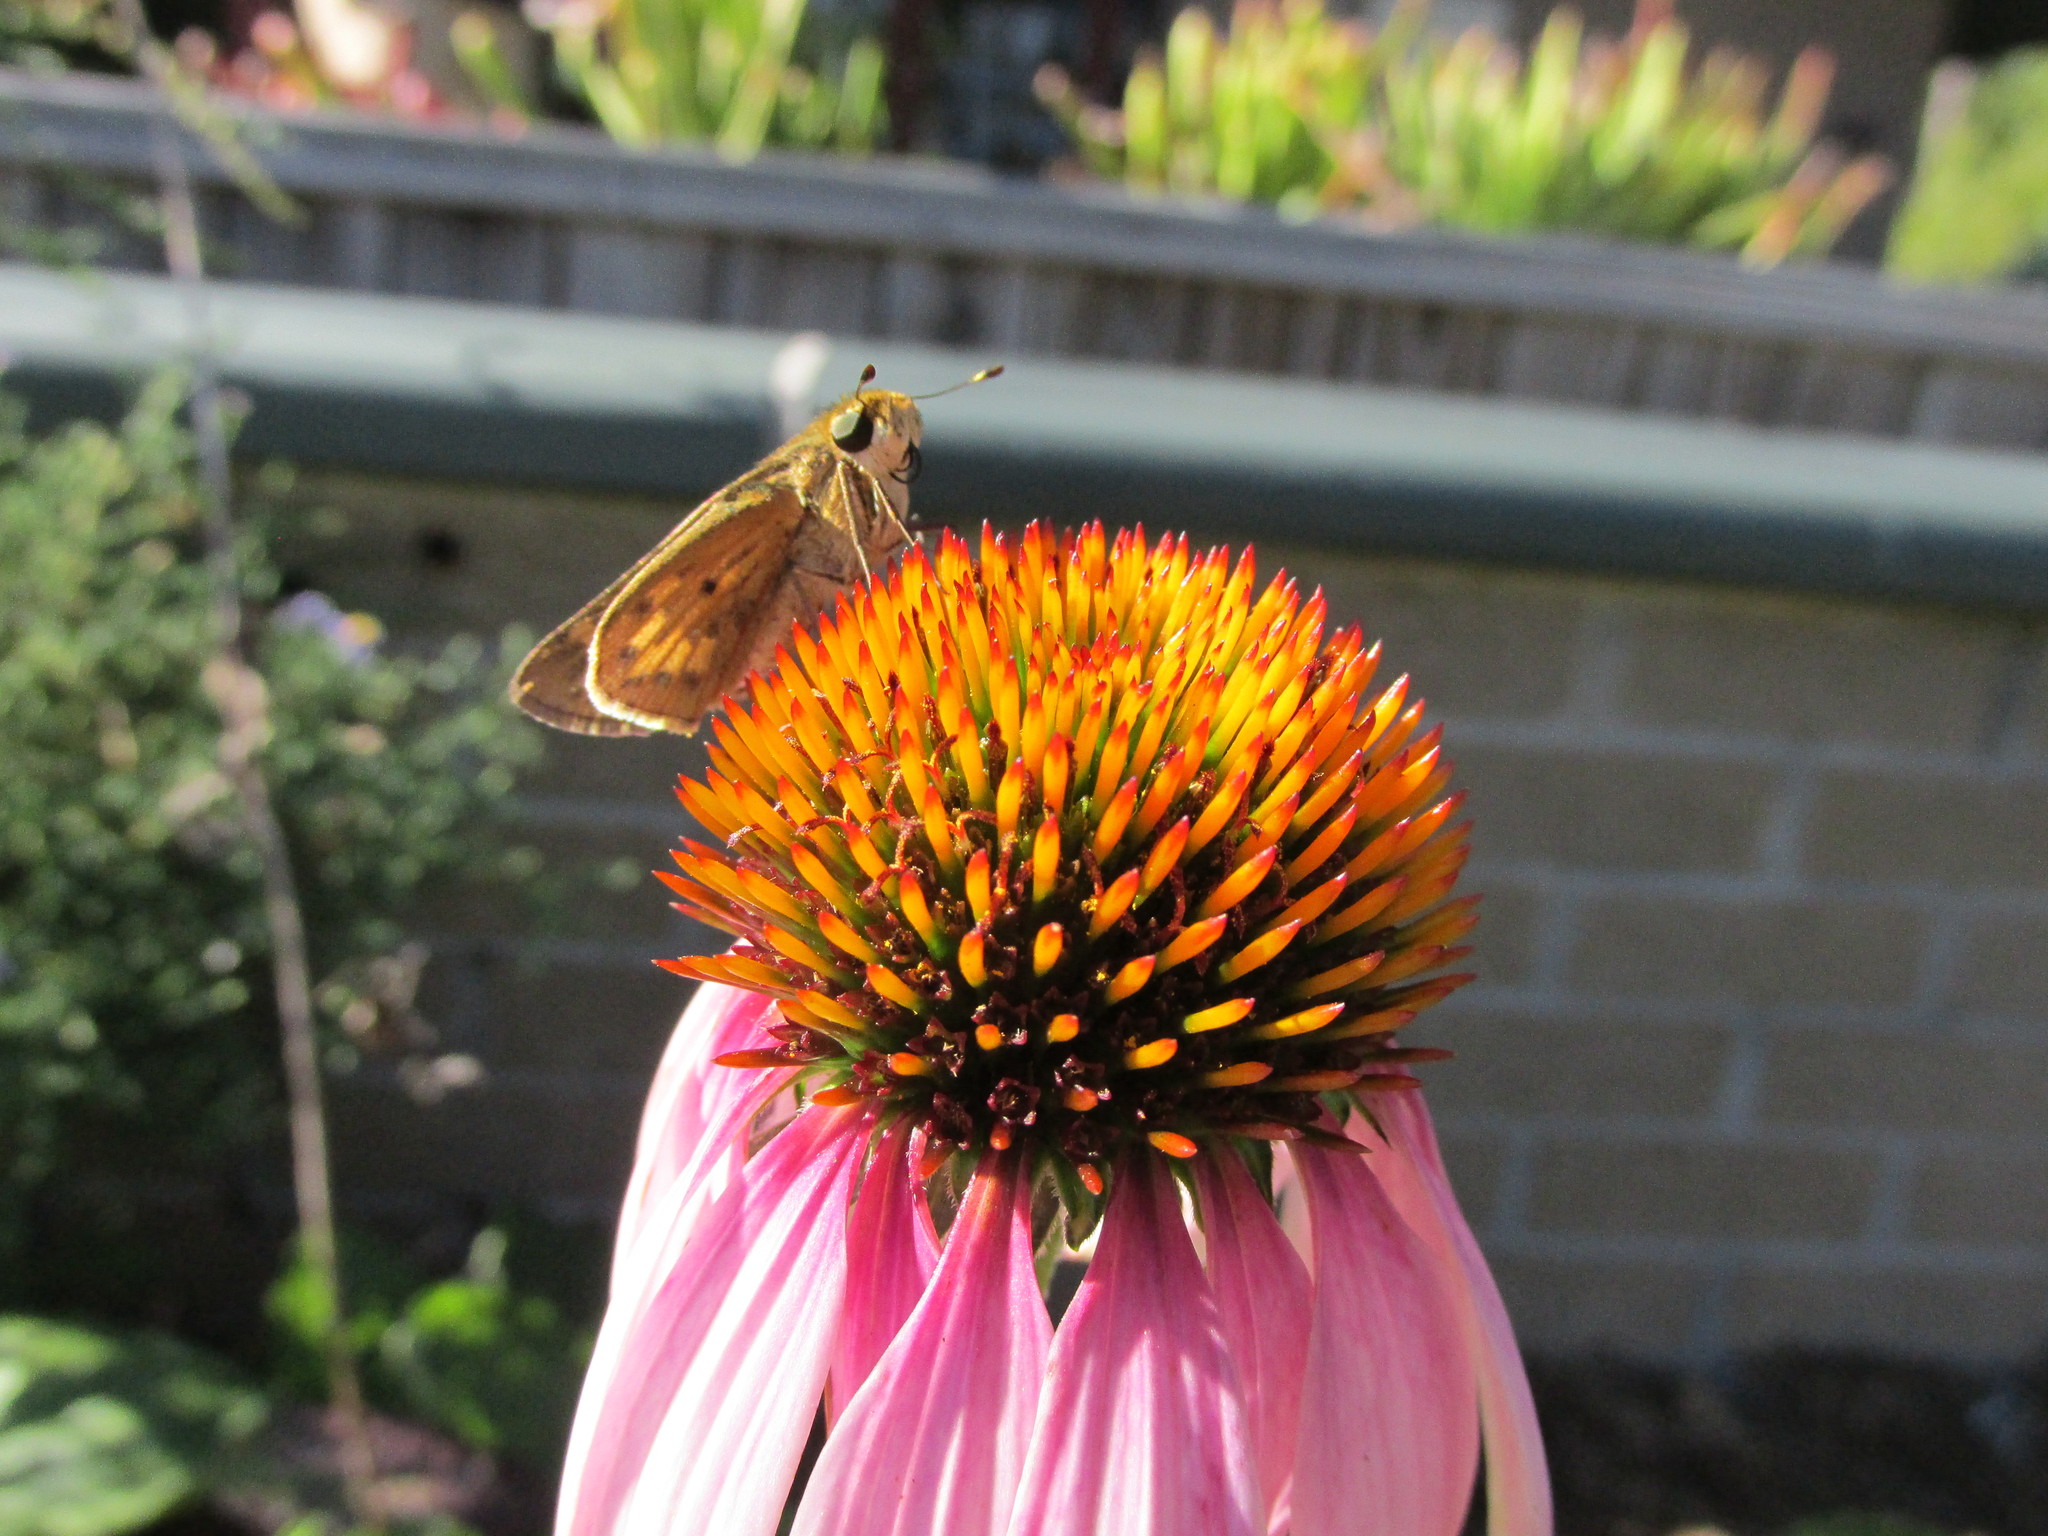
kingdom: Animalia
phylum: Arthropoda
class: Insecta
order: Lepidoptera
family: Hesperiidae
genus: Hylephila
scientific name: Hylephila phyleus
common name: Fiery skipper
